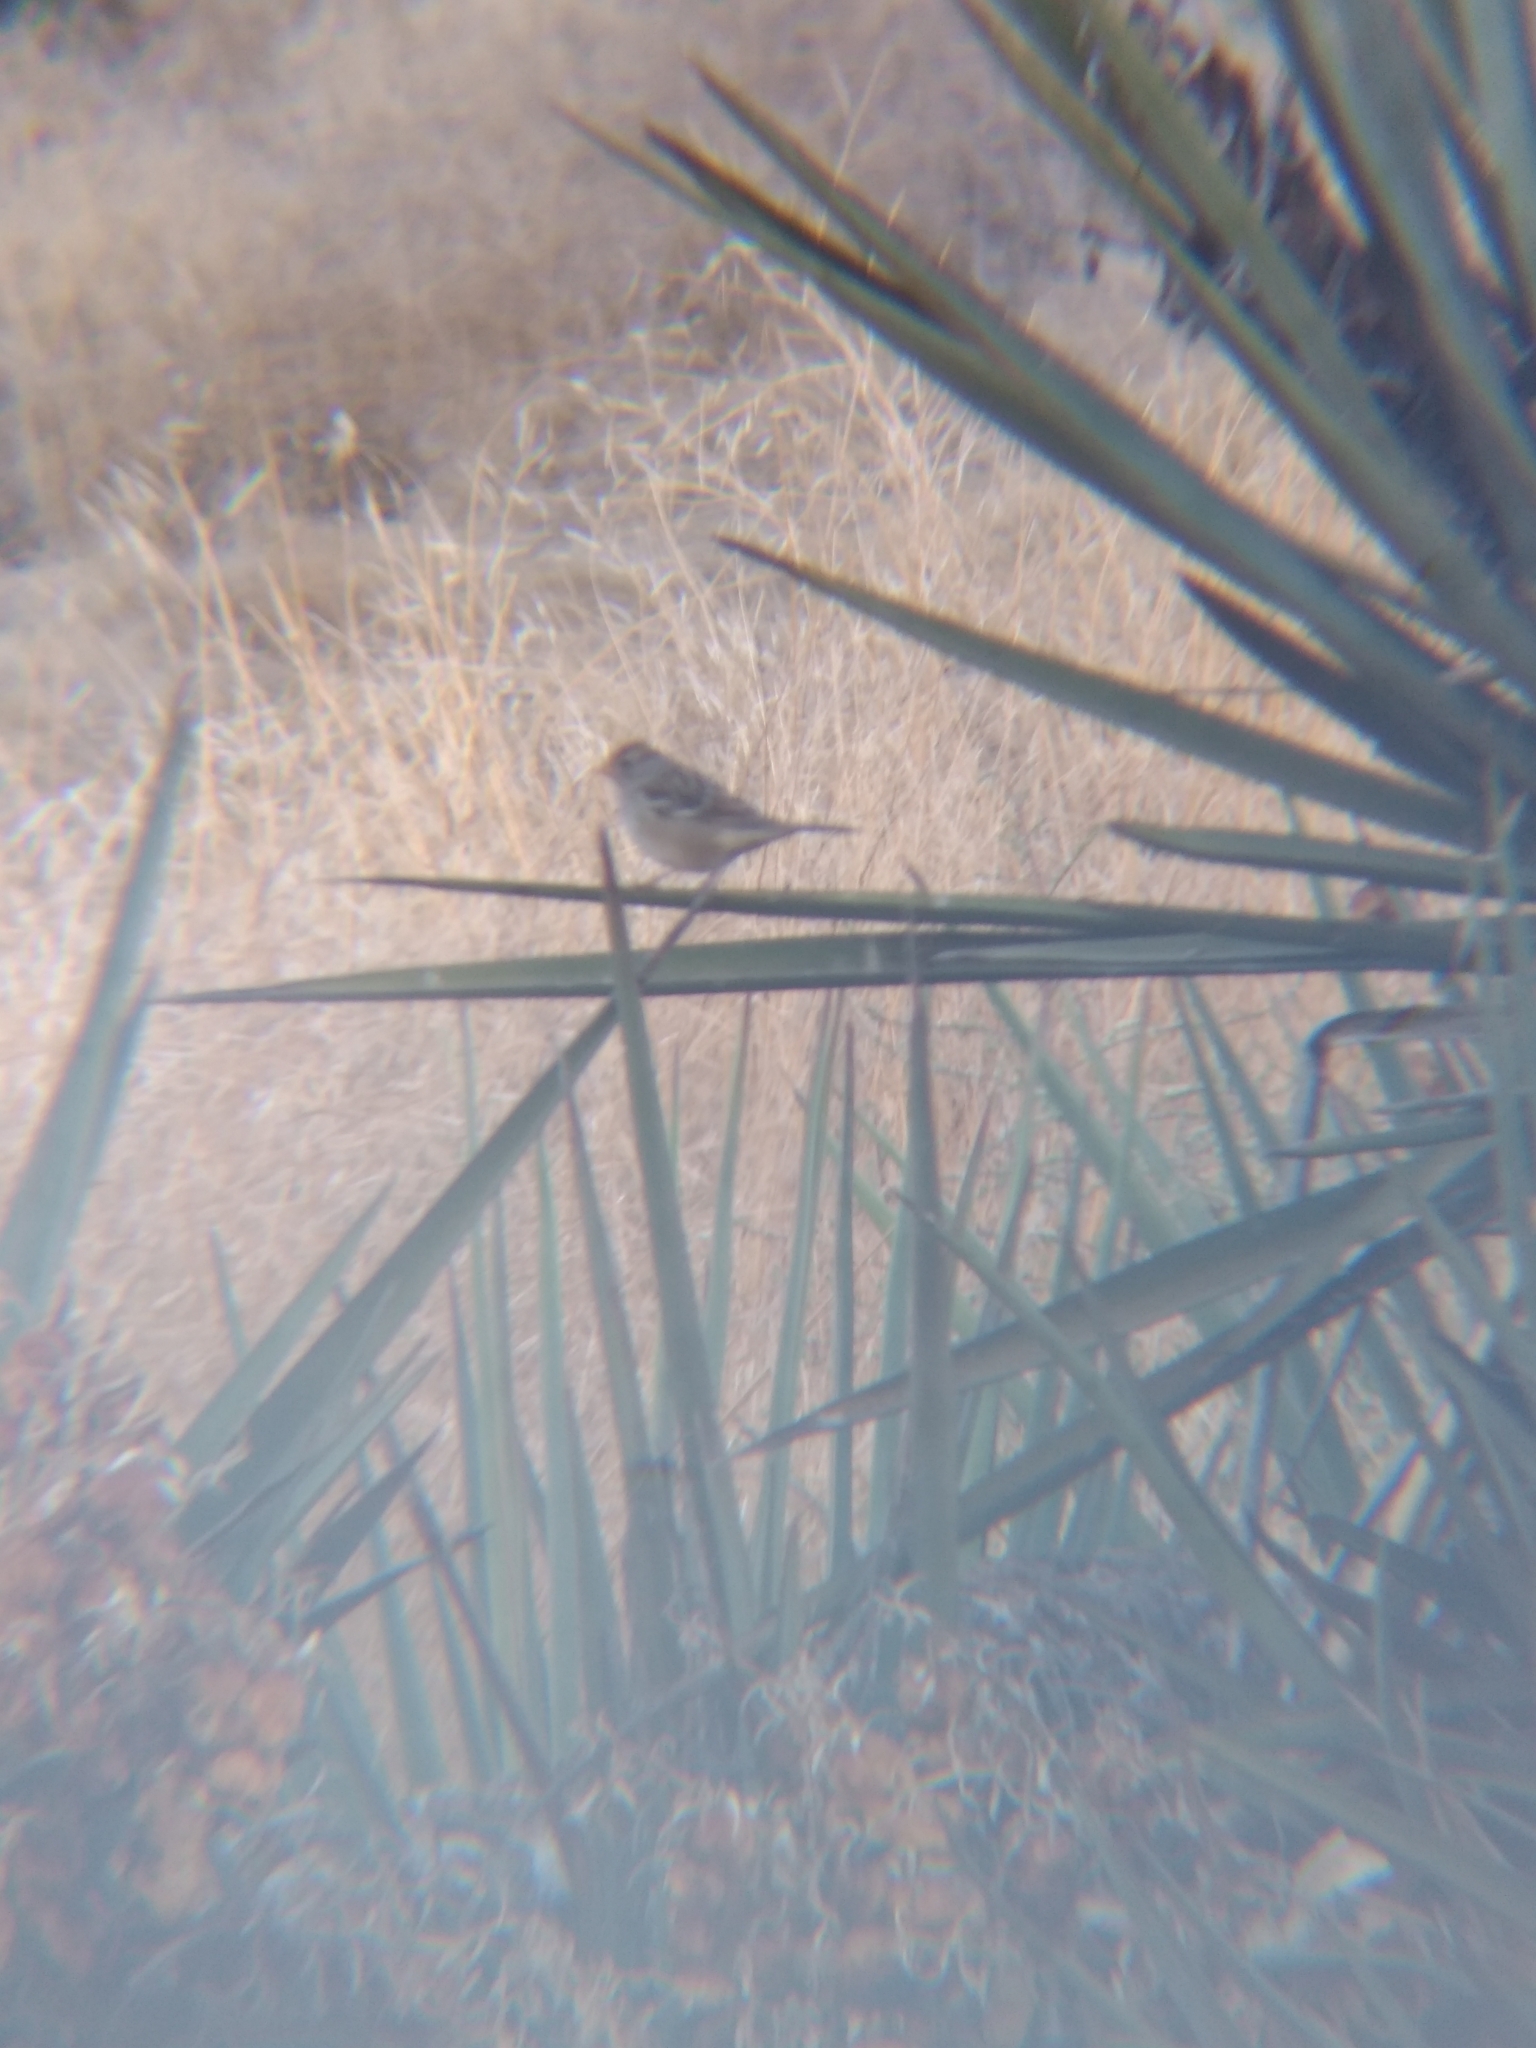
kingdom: Animalia
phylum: Chordata
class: Aves
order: Passeriformes
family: Passerellidae
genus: Zonotrichia
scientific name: Zonotrichia leucophrys
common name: White-crowned sparrow
